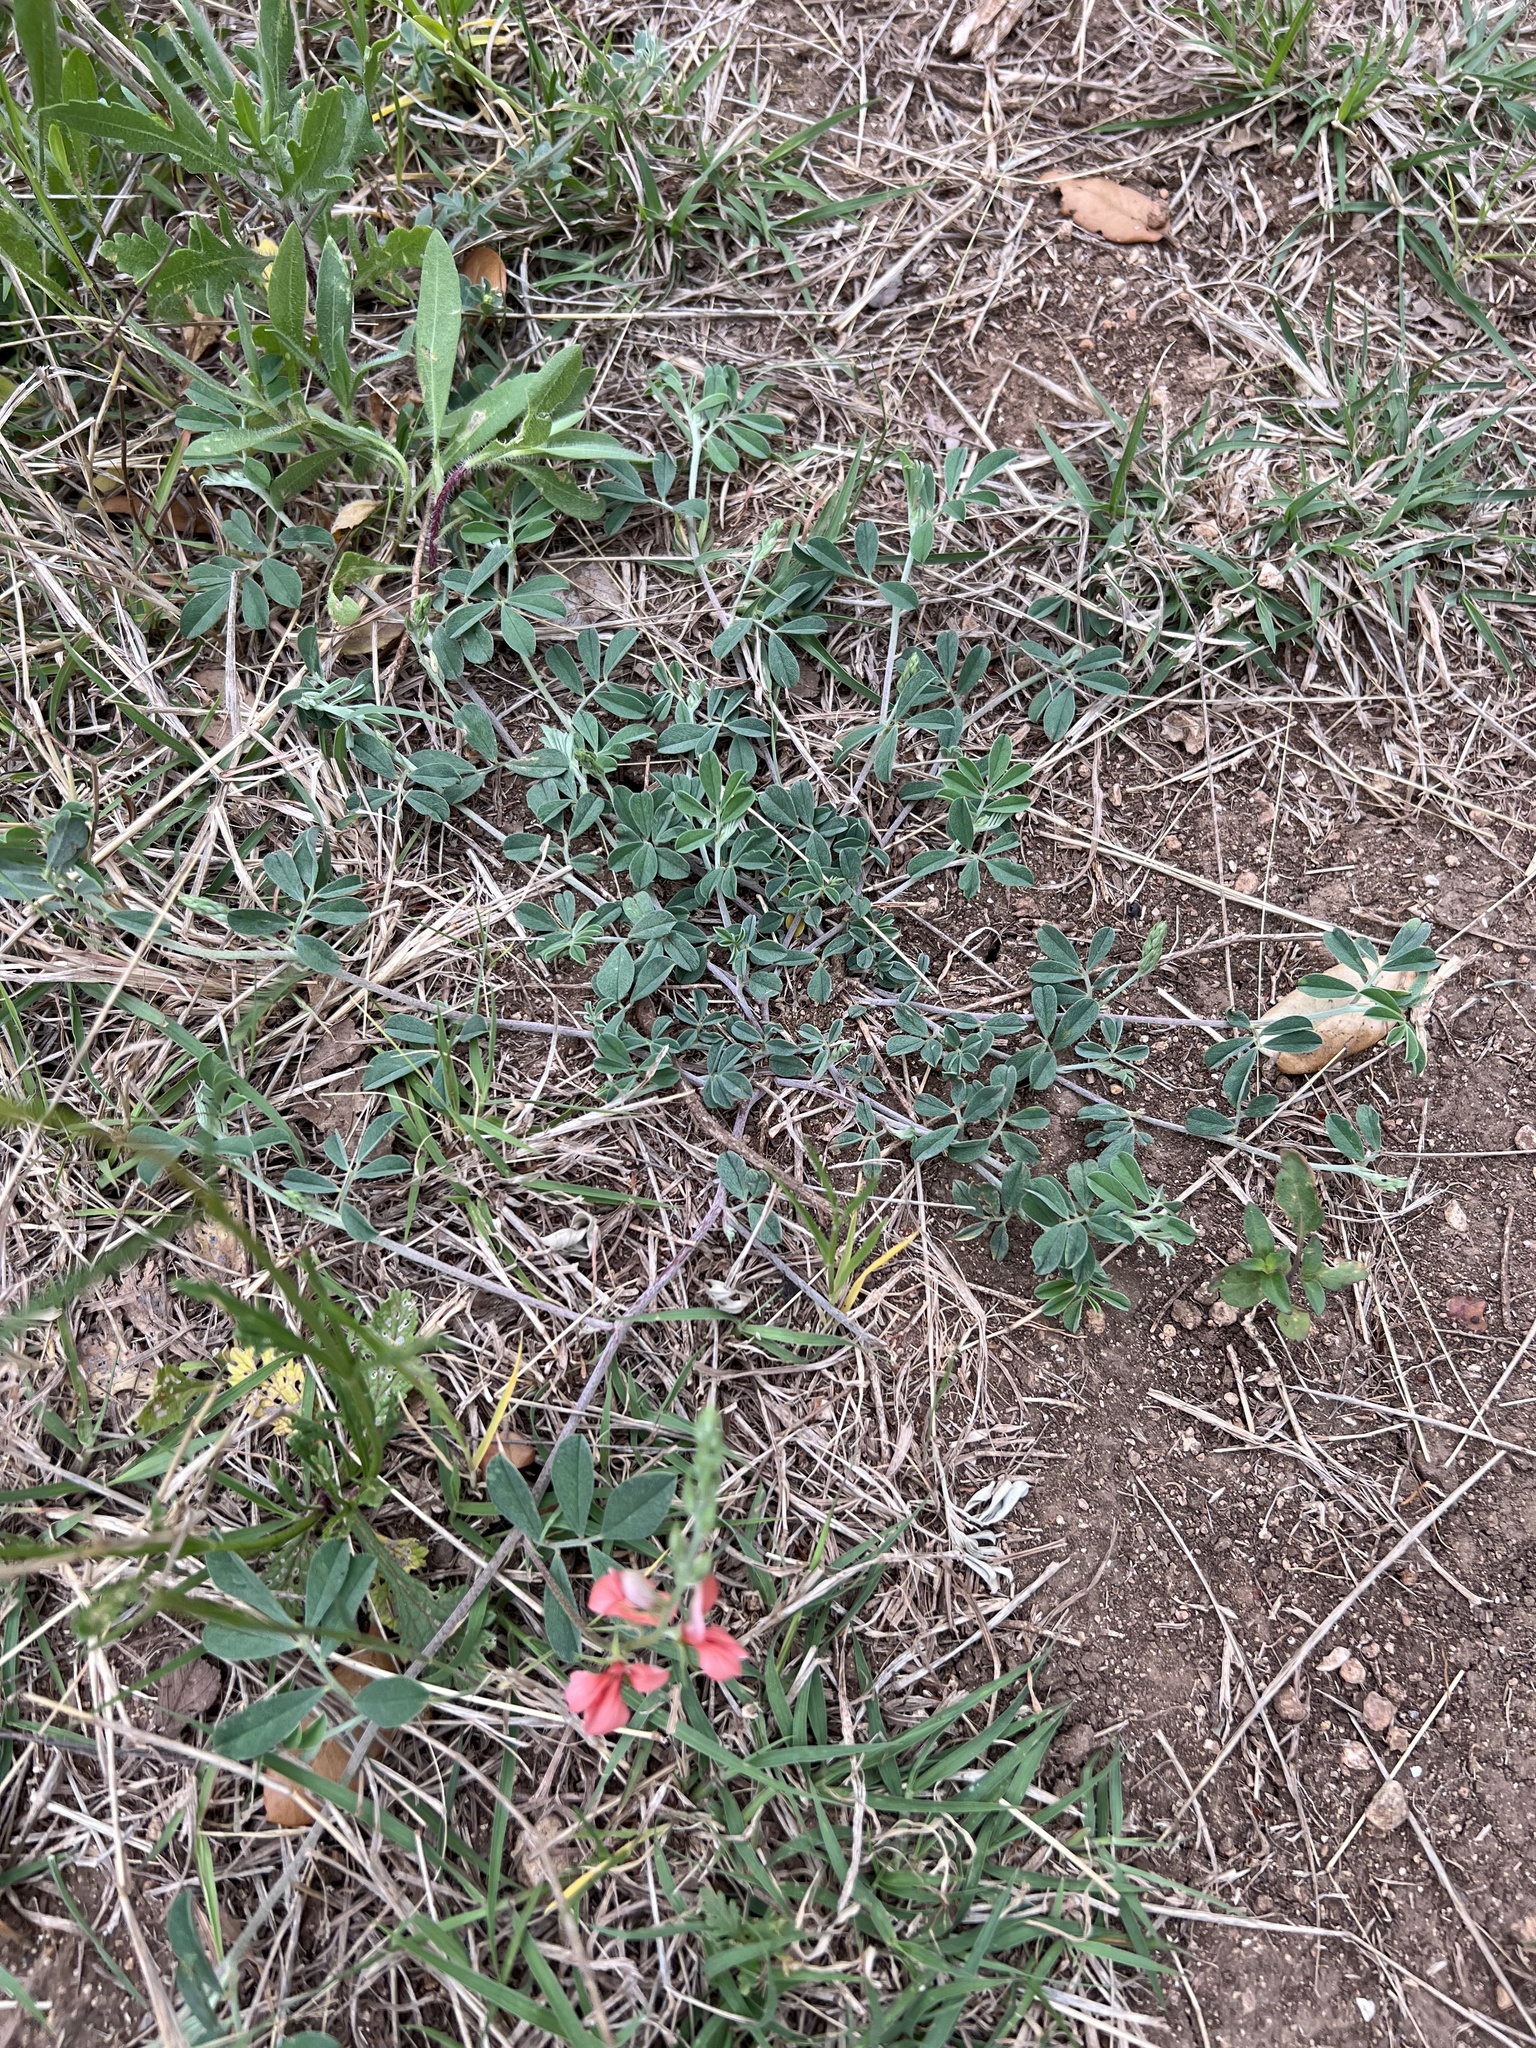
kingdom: Plantae
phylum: Tracheophyta
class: Magnoliopsida
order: Fabales
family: Fabaceae
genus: Indigofera
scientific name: Indigofera miniata
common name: Coast indigo
